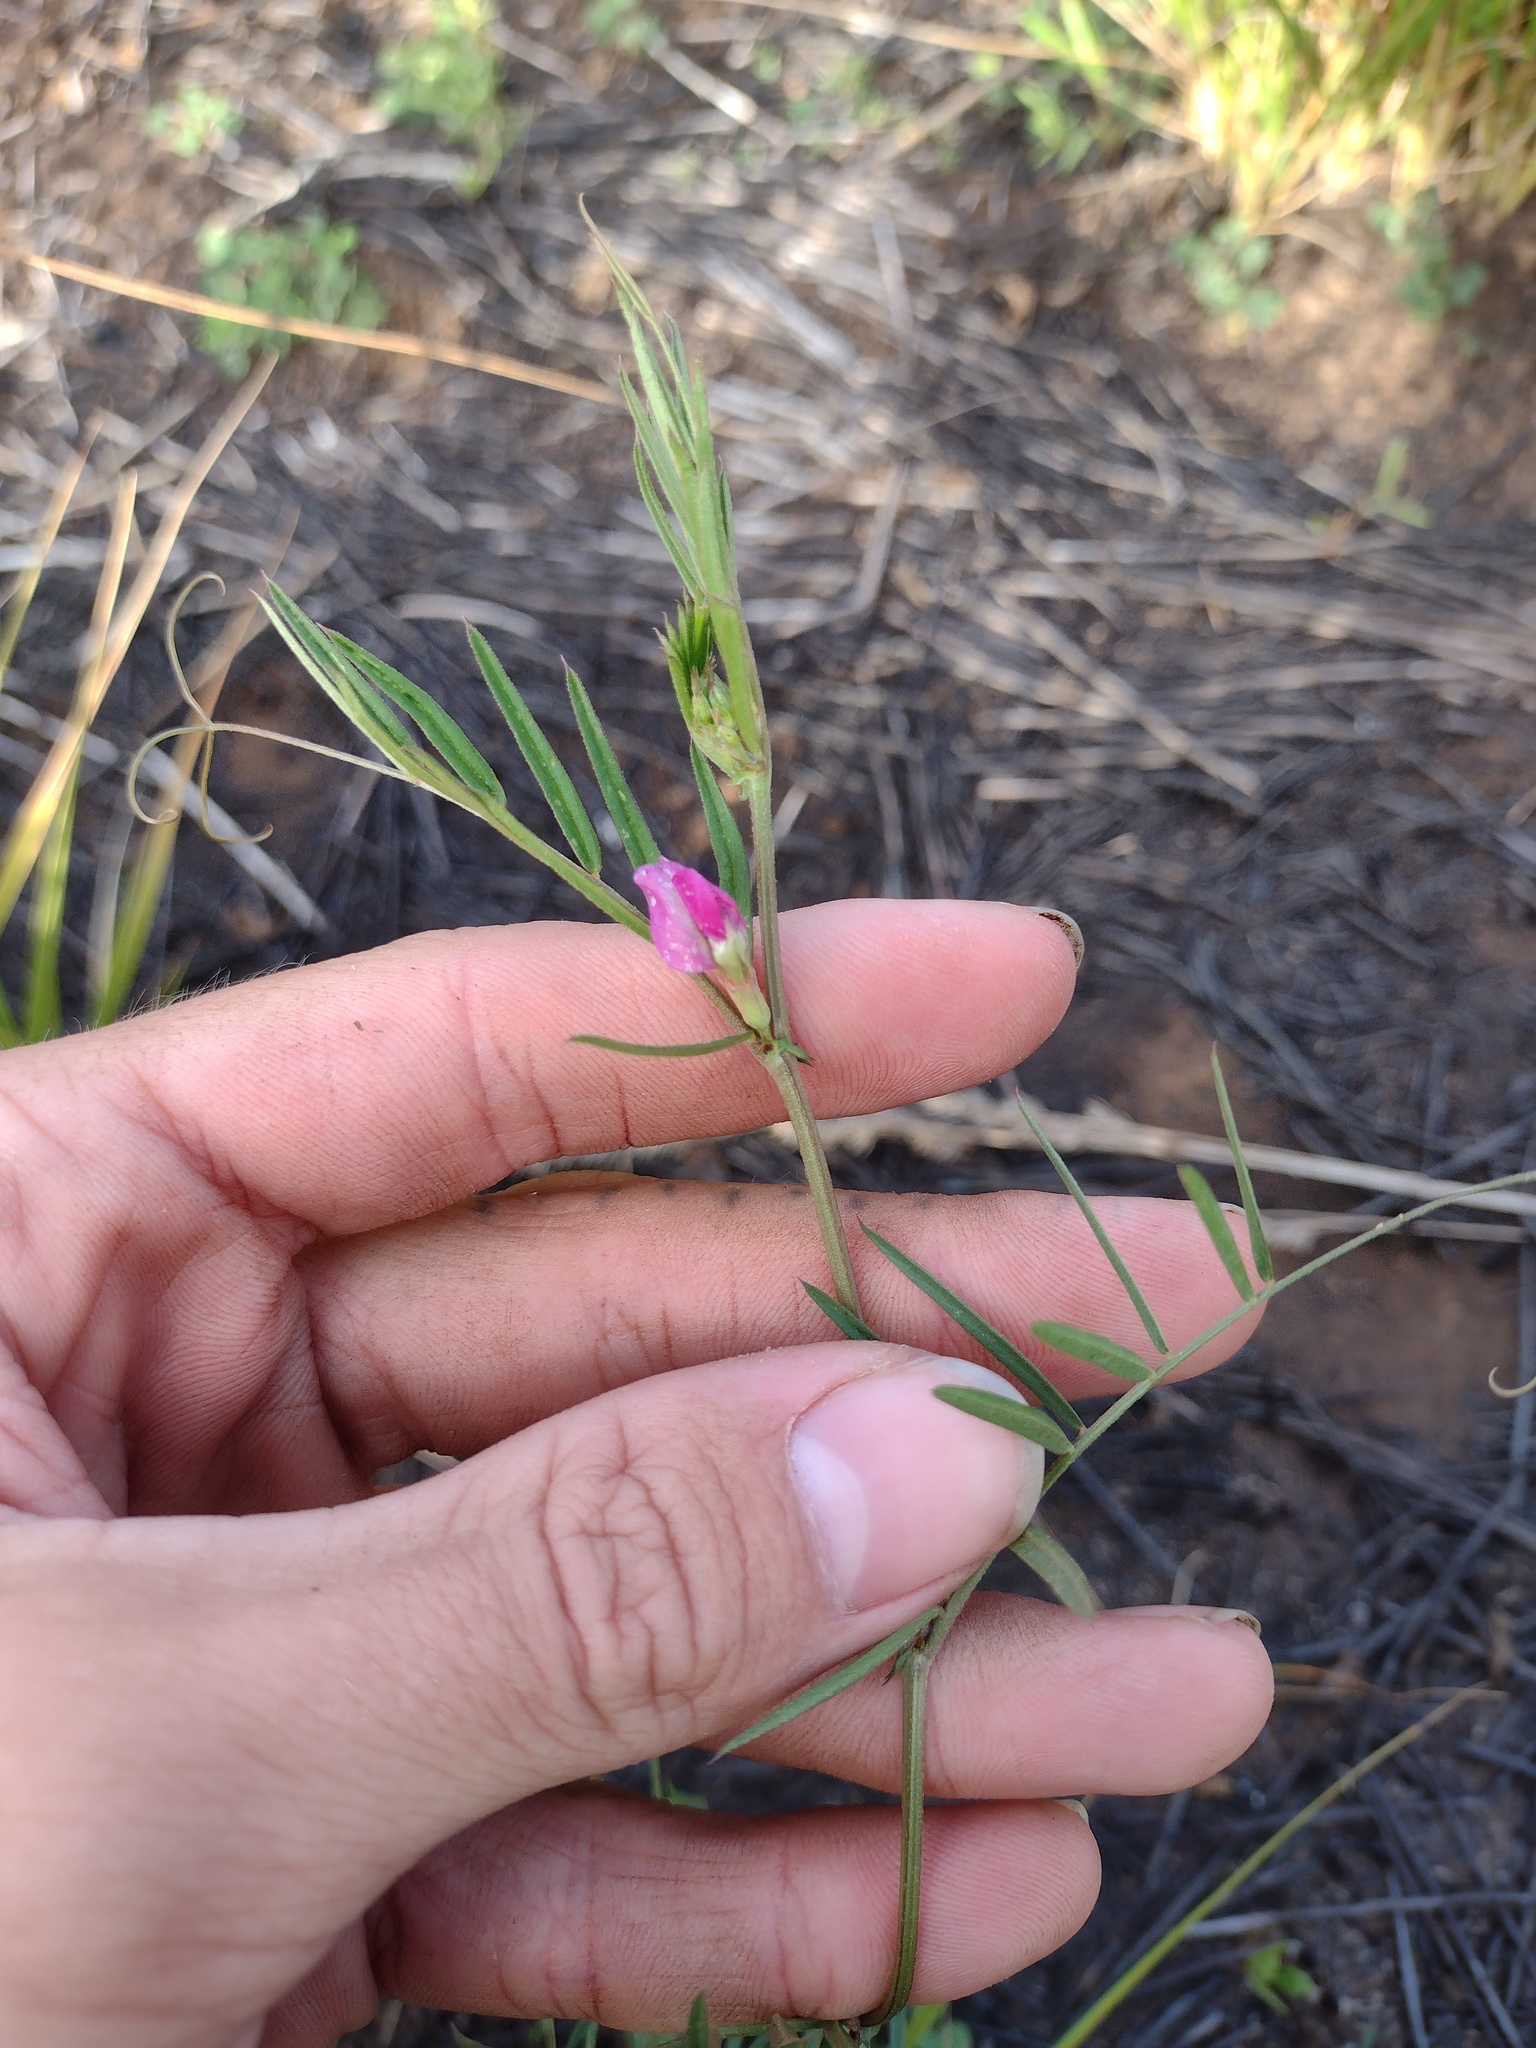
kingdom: Plantae
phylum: Tracheophyta
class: Magnoliopsida
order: Fabales
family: Fabaceae
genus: Vicia
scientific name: Vicia sativa
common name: Garden vetch
